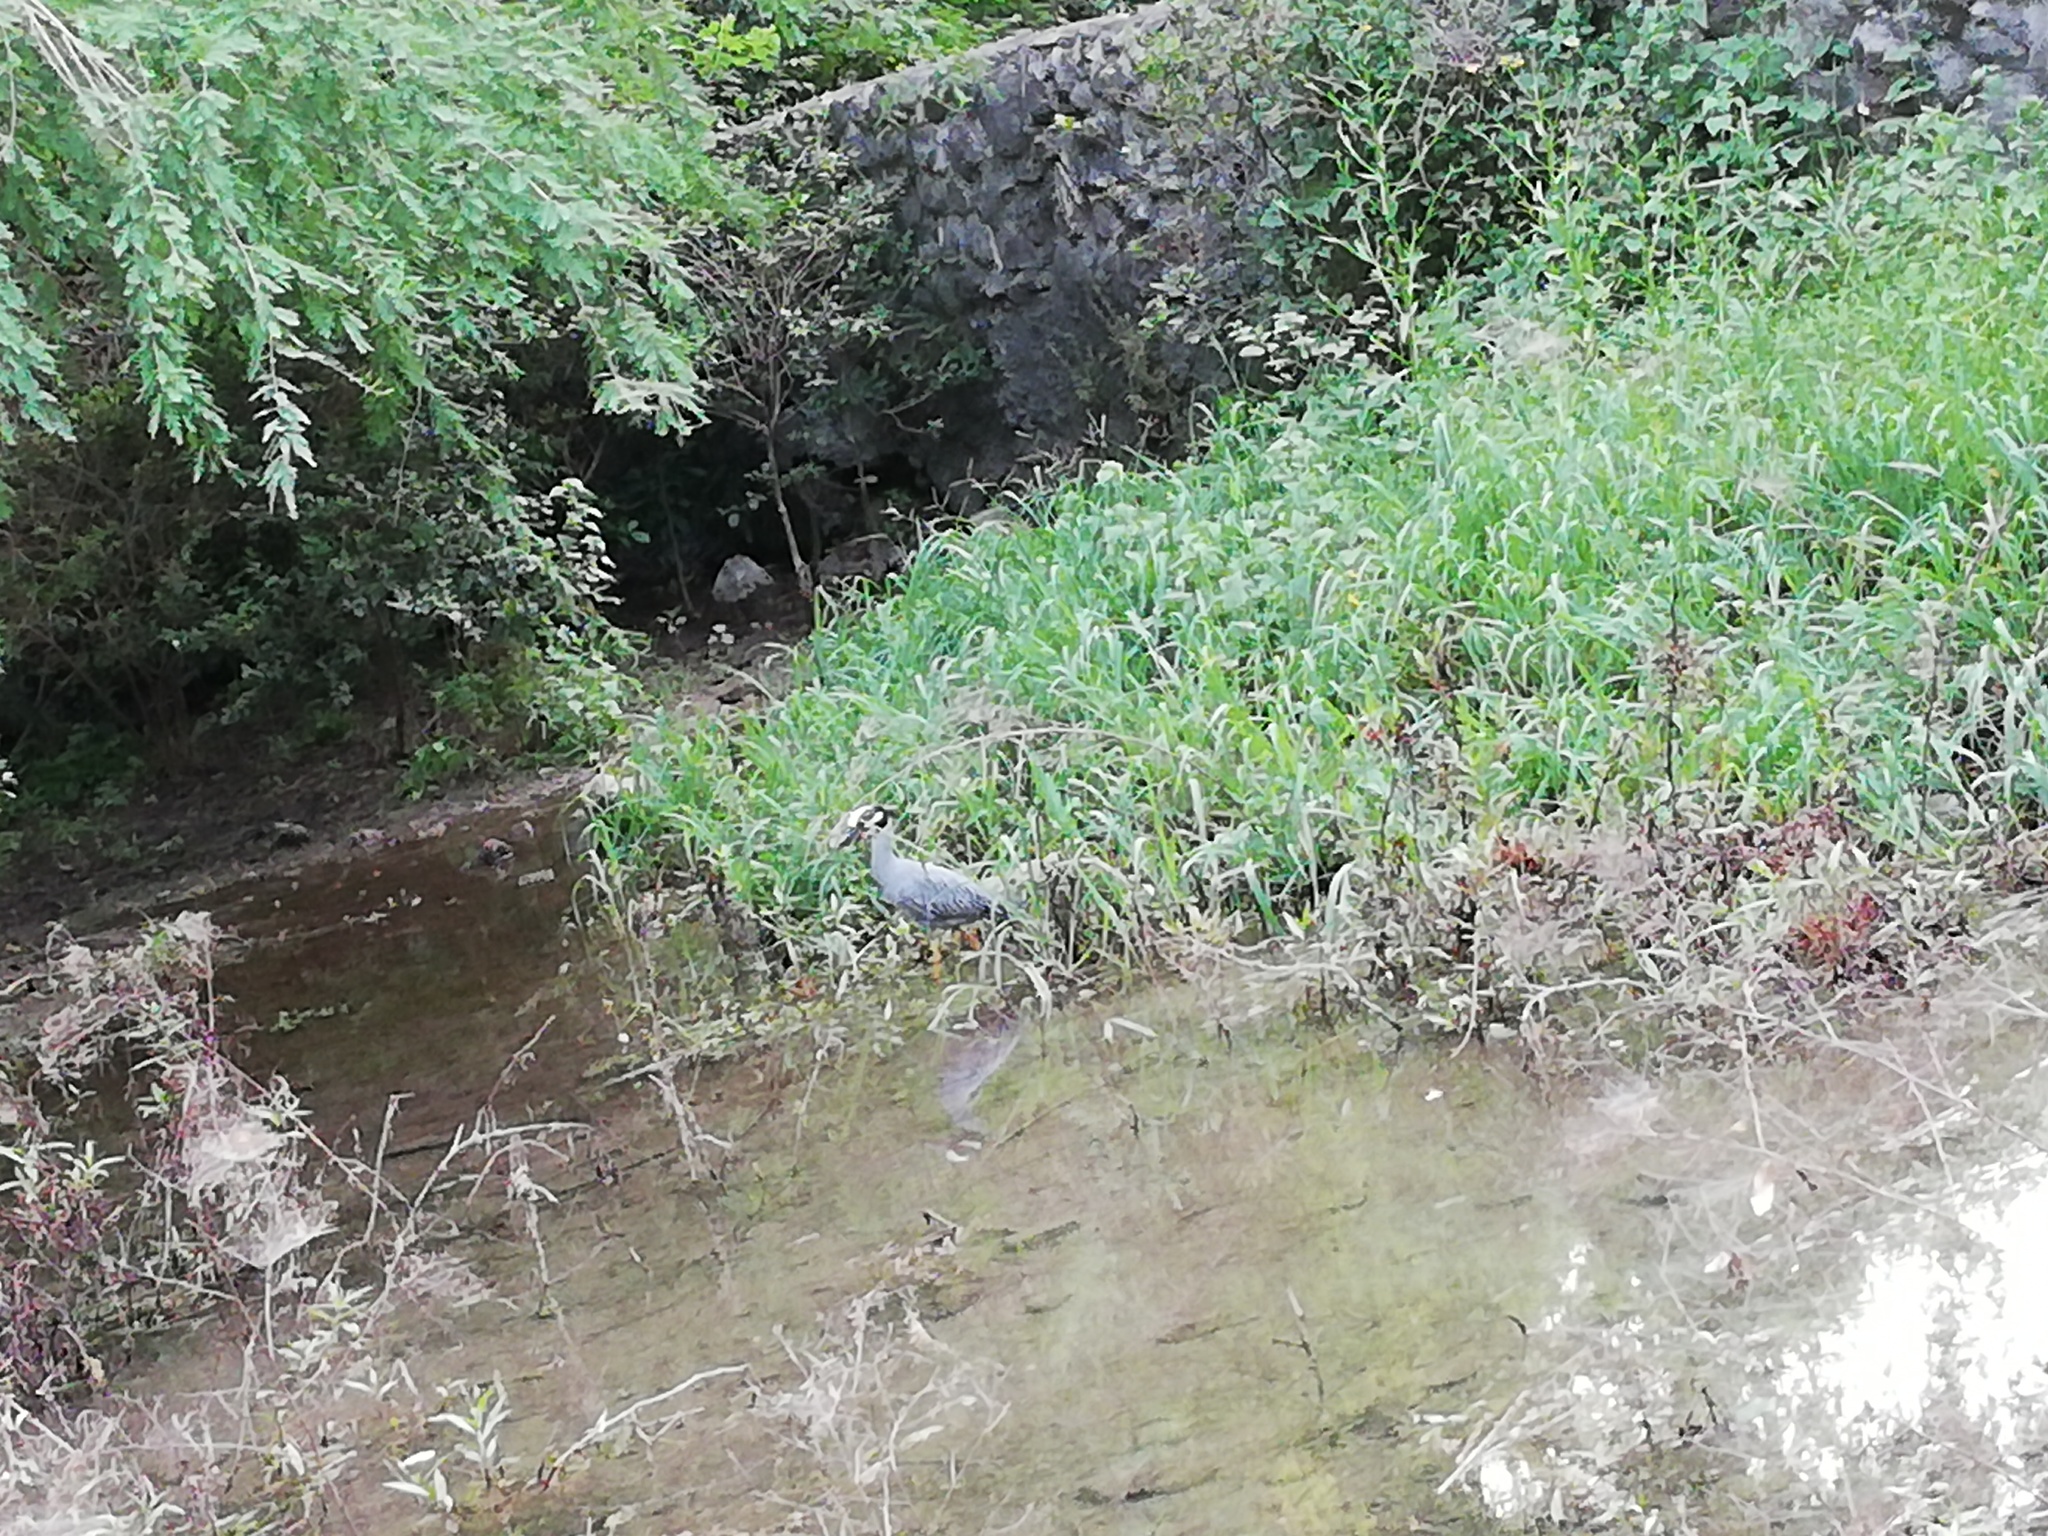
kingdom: Animalia
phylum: Chordata
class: Aves
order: Pelecaniformes
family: Ardeidae
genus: Nyctanassa
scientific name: Nyctanassa violacea
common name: Yellow-crowned night heron
